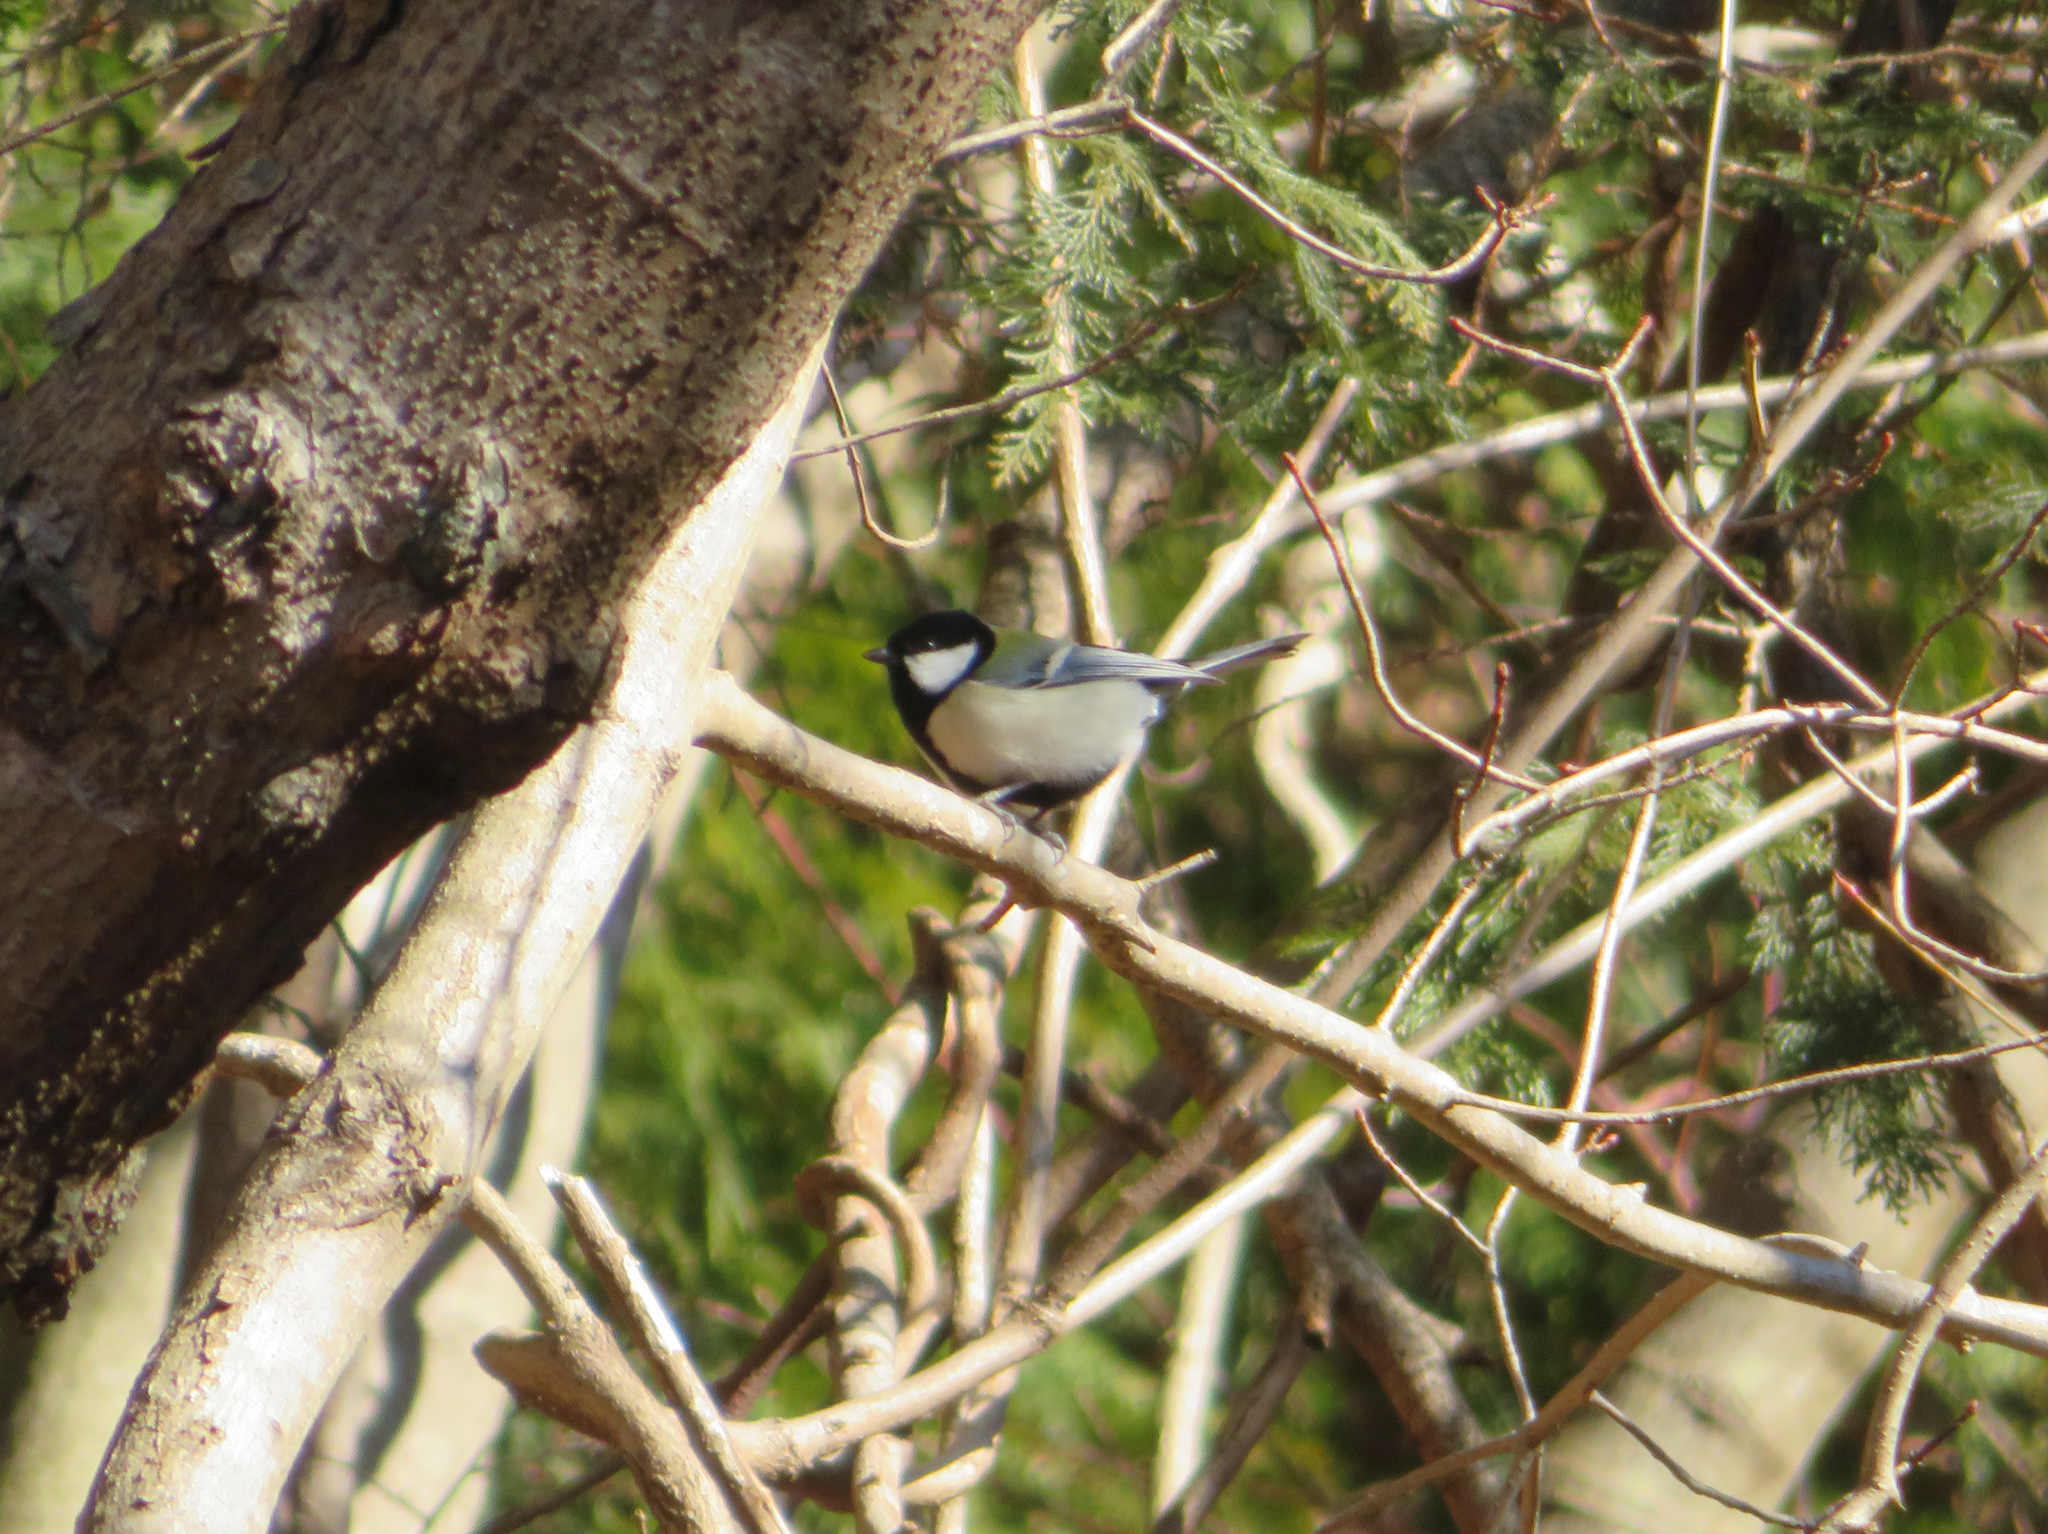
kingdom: Animalia
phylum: Chordata
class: Aves
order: Passeriformes
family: Paridae
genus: Parus
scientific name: Parus minor
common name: Japanese tit
